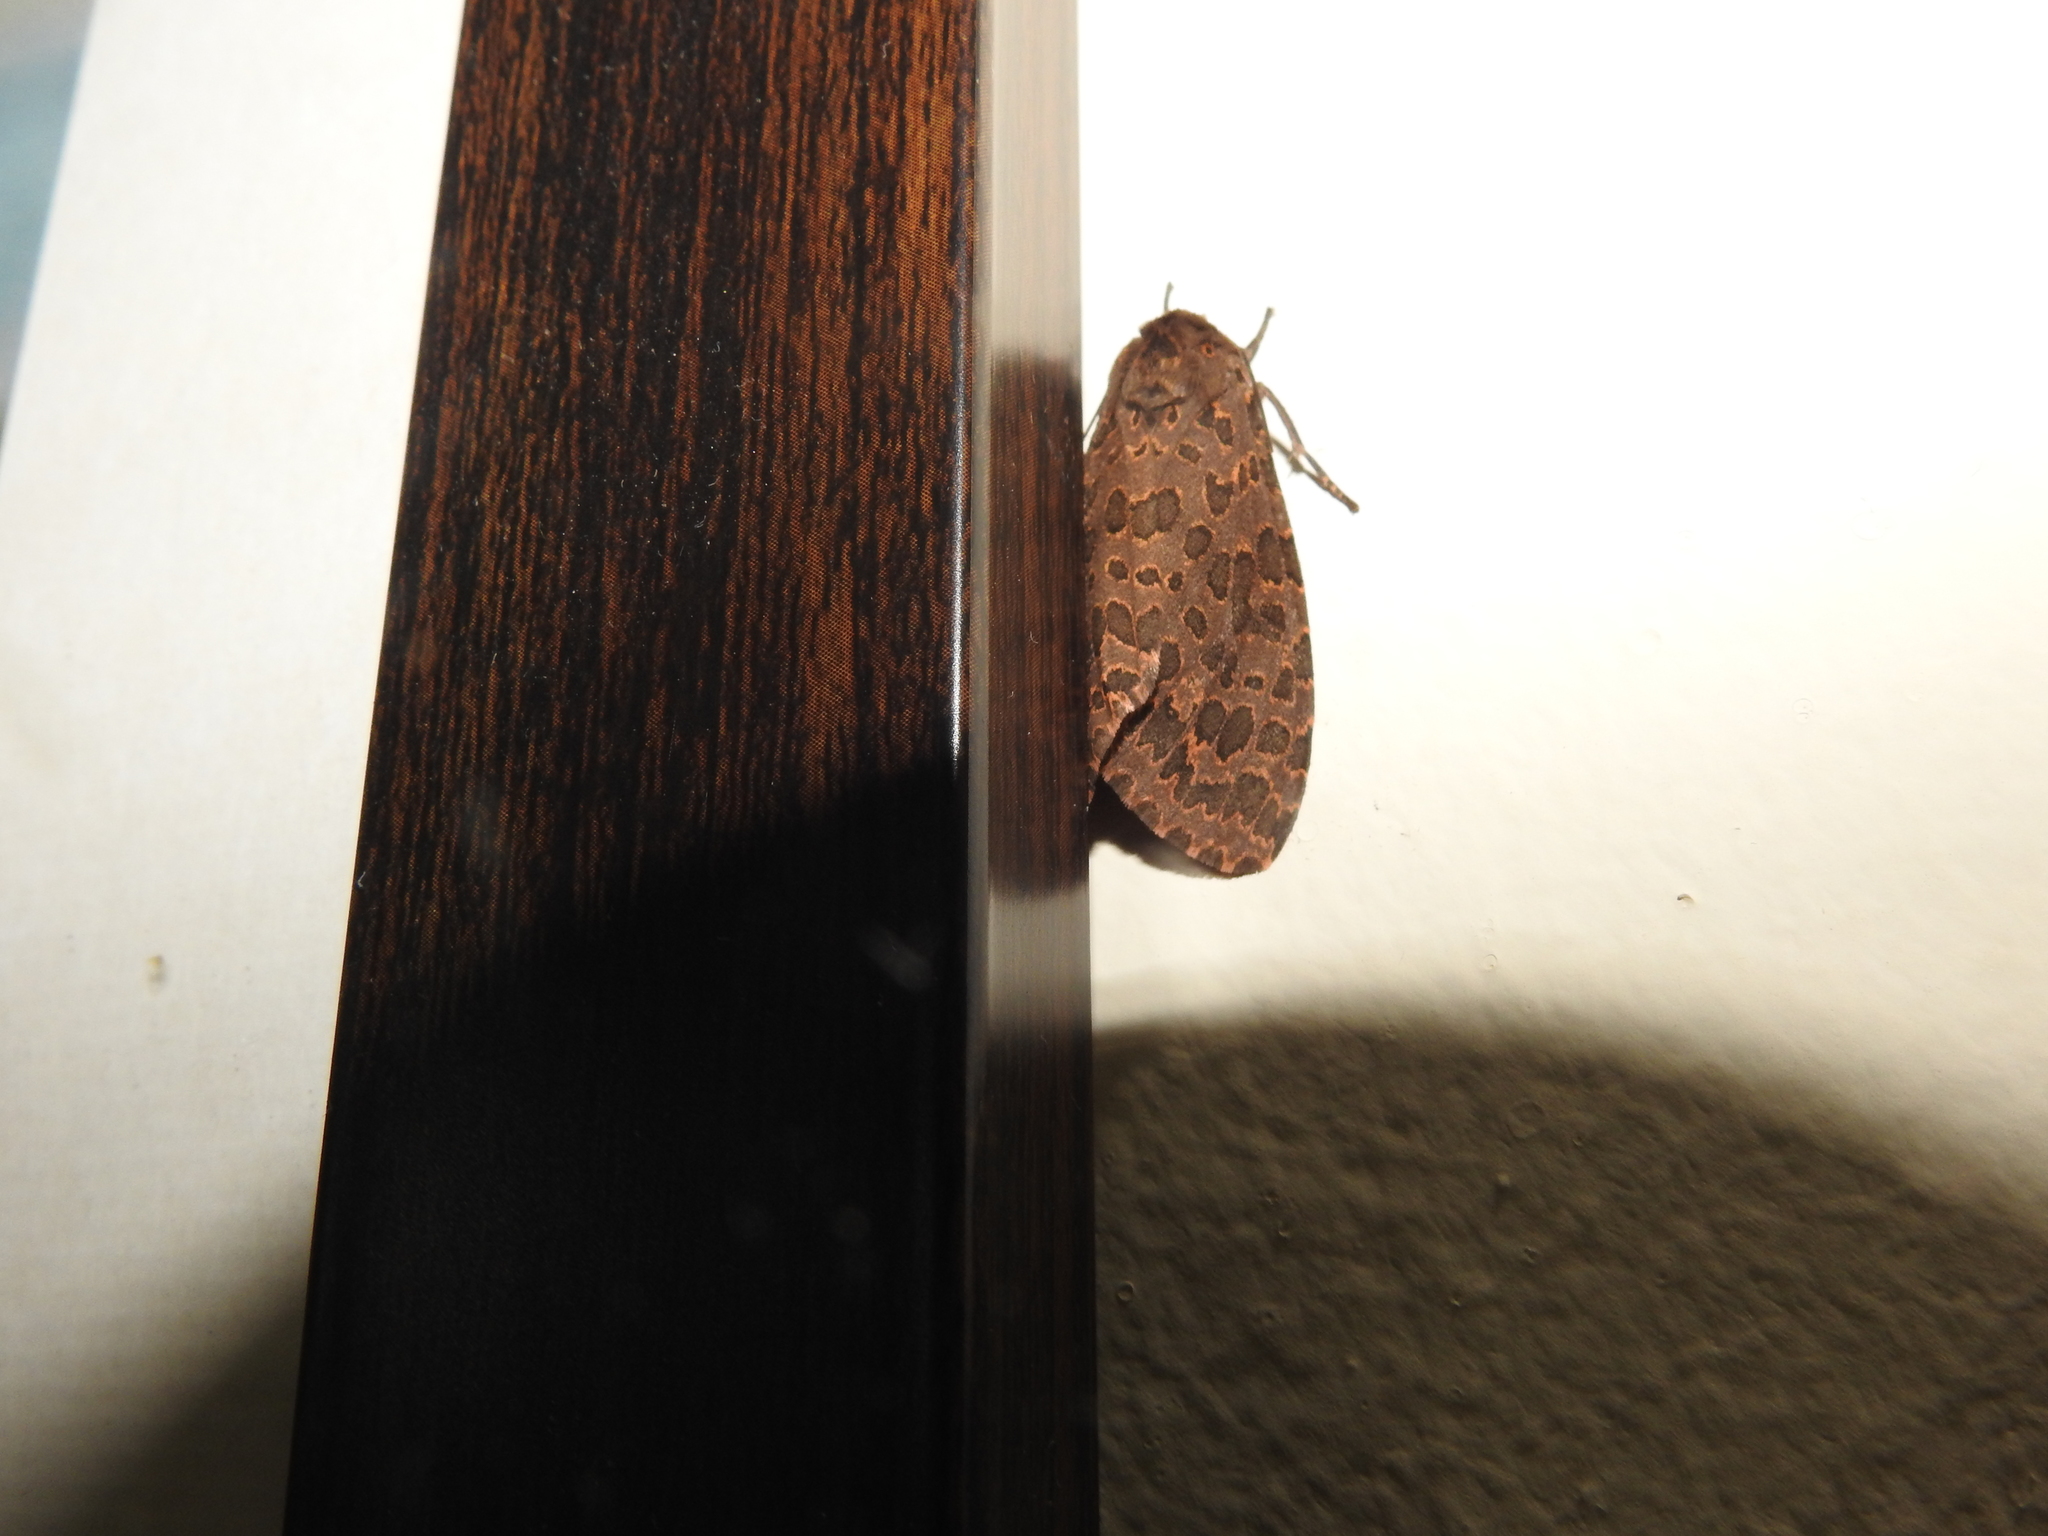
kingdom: Animalia
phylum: Arthropoda
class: Insecta
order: Lepidoptera
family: Erebidae
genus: Olepa
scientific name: Olepa ricini
